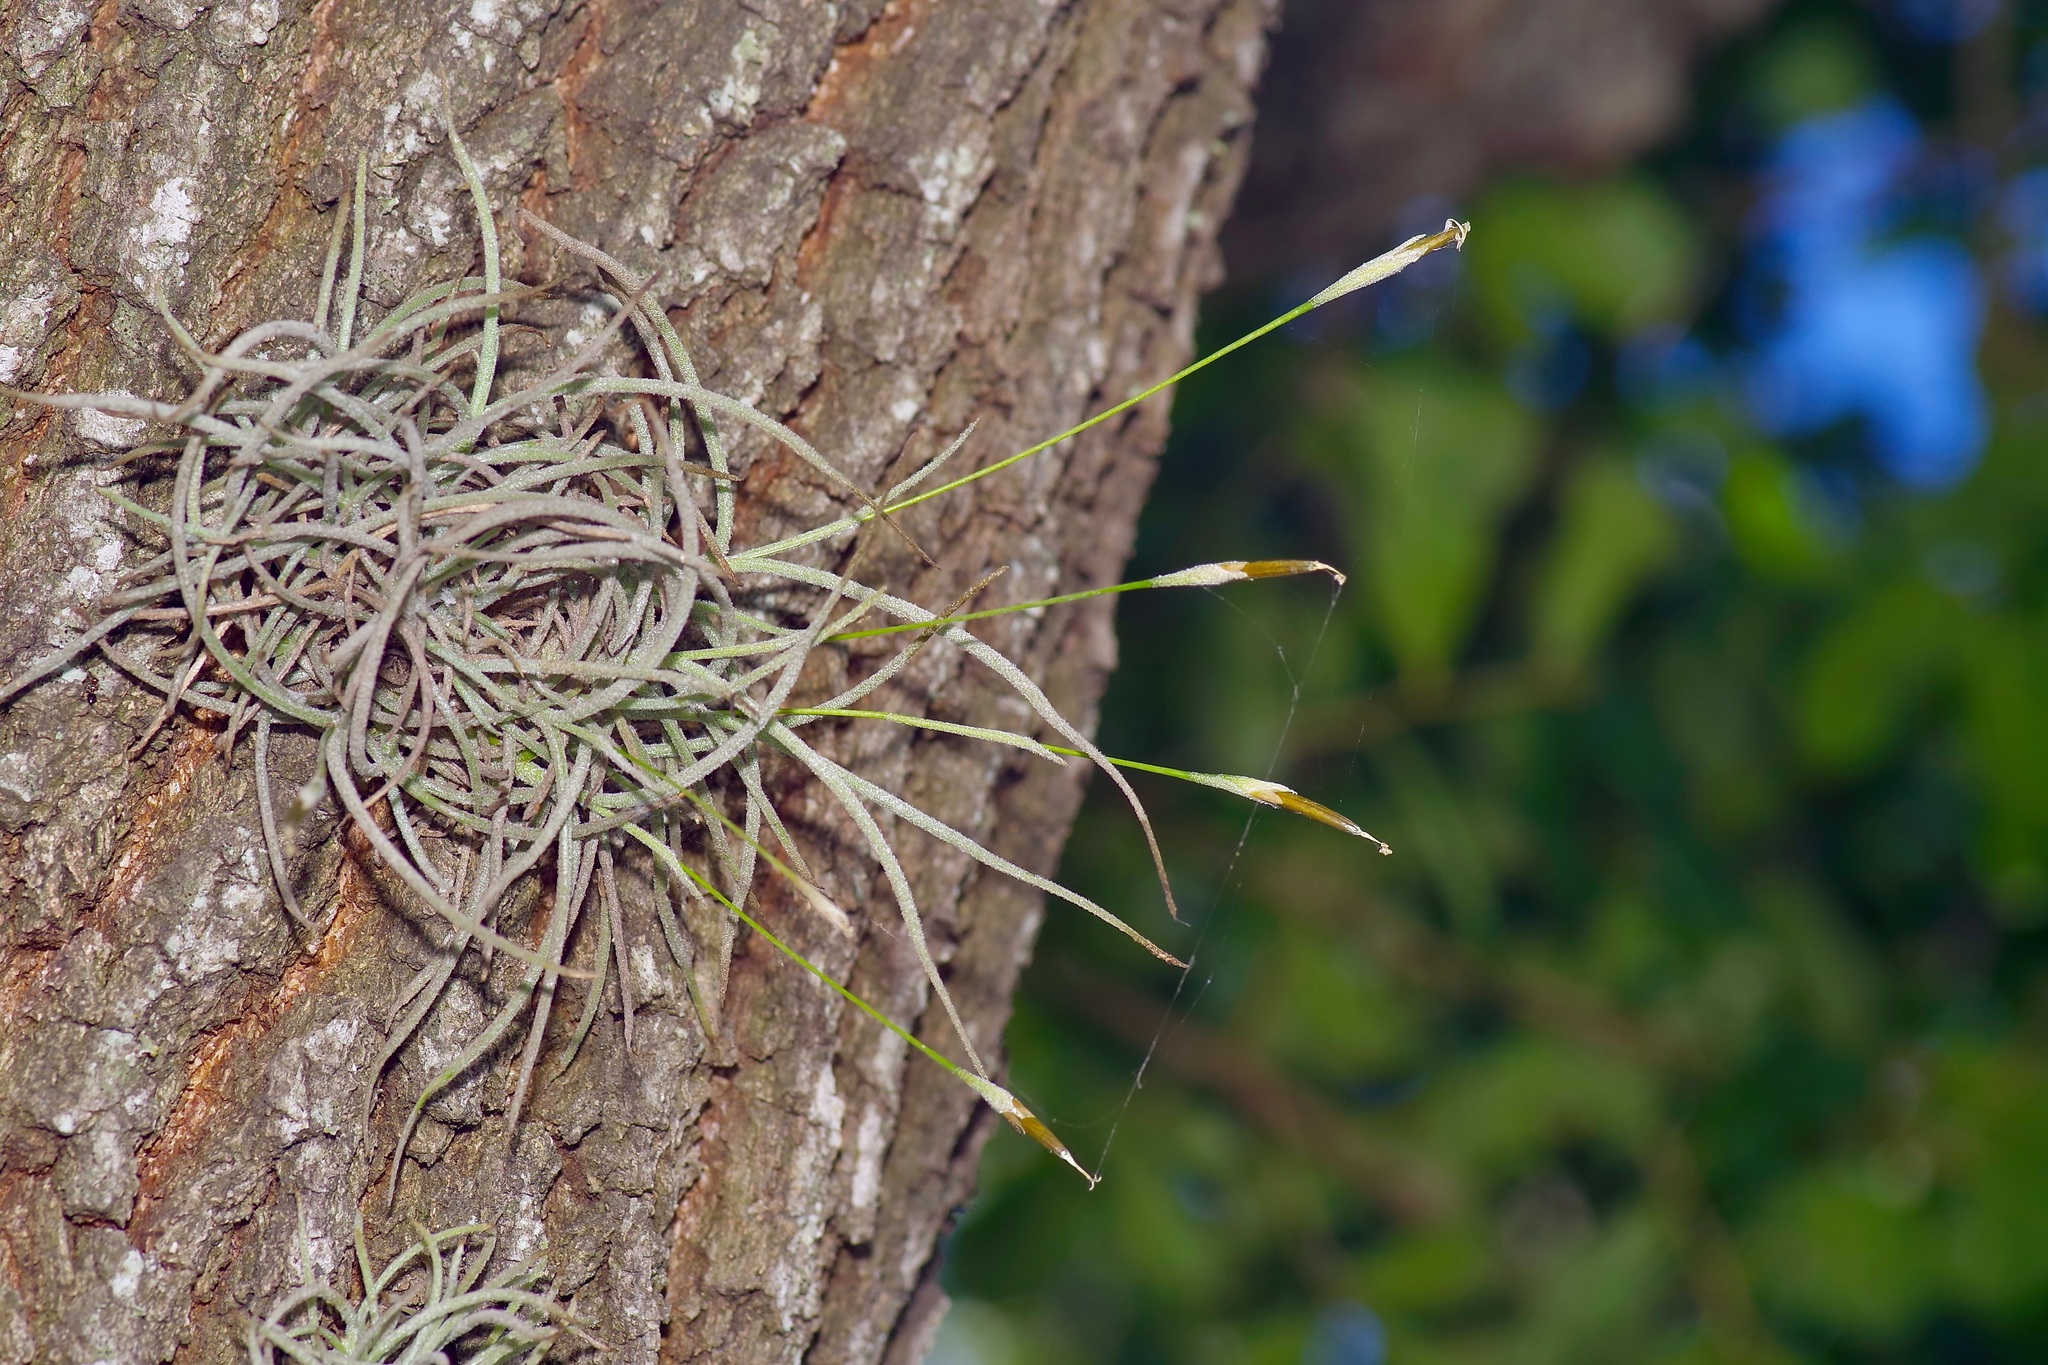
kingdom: Plantae
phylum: Tracheophyta
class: Liliopsida
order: Poales
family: Bromeliaceae
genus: Tillandsia
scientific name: Tillandsia recurvata
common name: Small ballmoss
